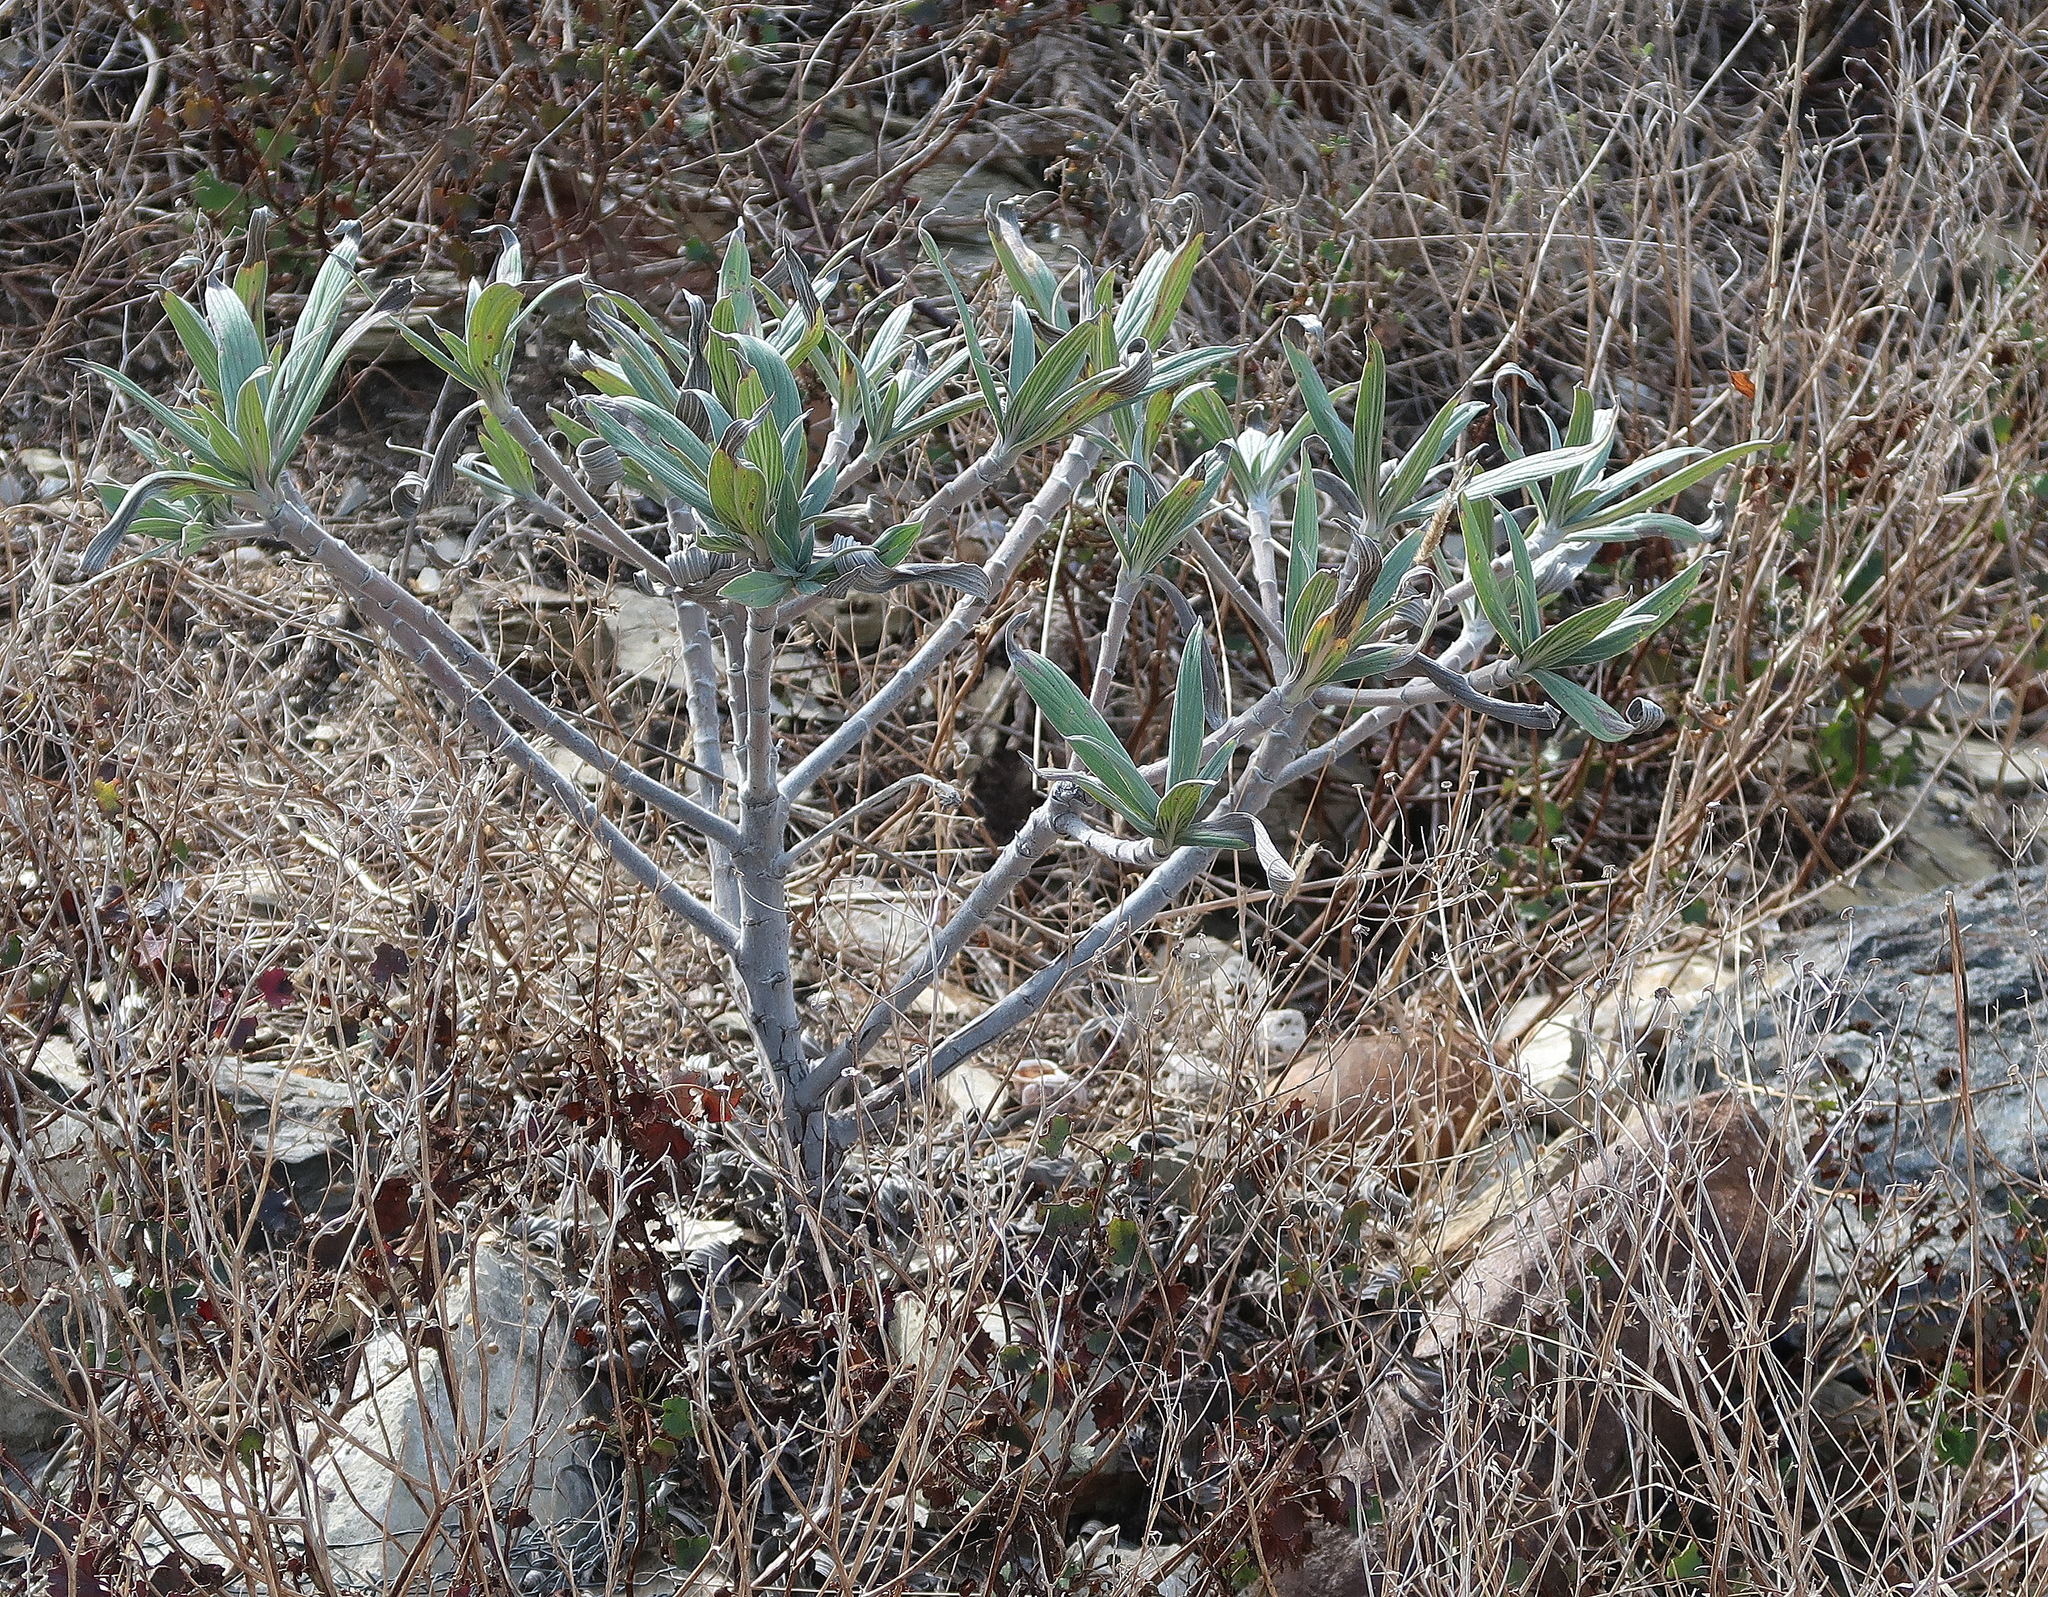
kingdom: Plantae
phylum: Tracheophyta
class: Magnoliopsida
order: Boraginales
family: Boraginaceae
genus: Echium
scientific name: Echium candicans
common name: Pride of madeira
